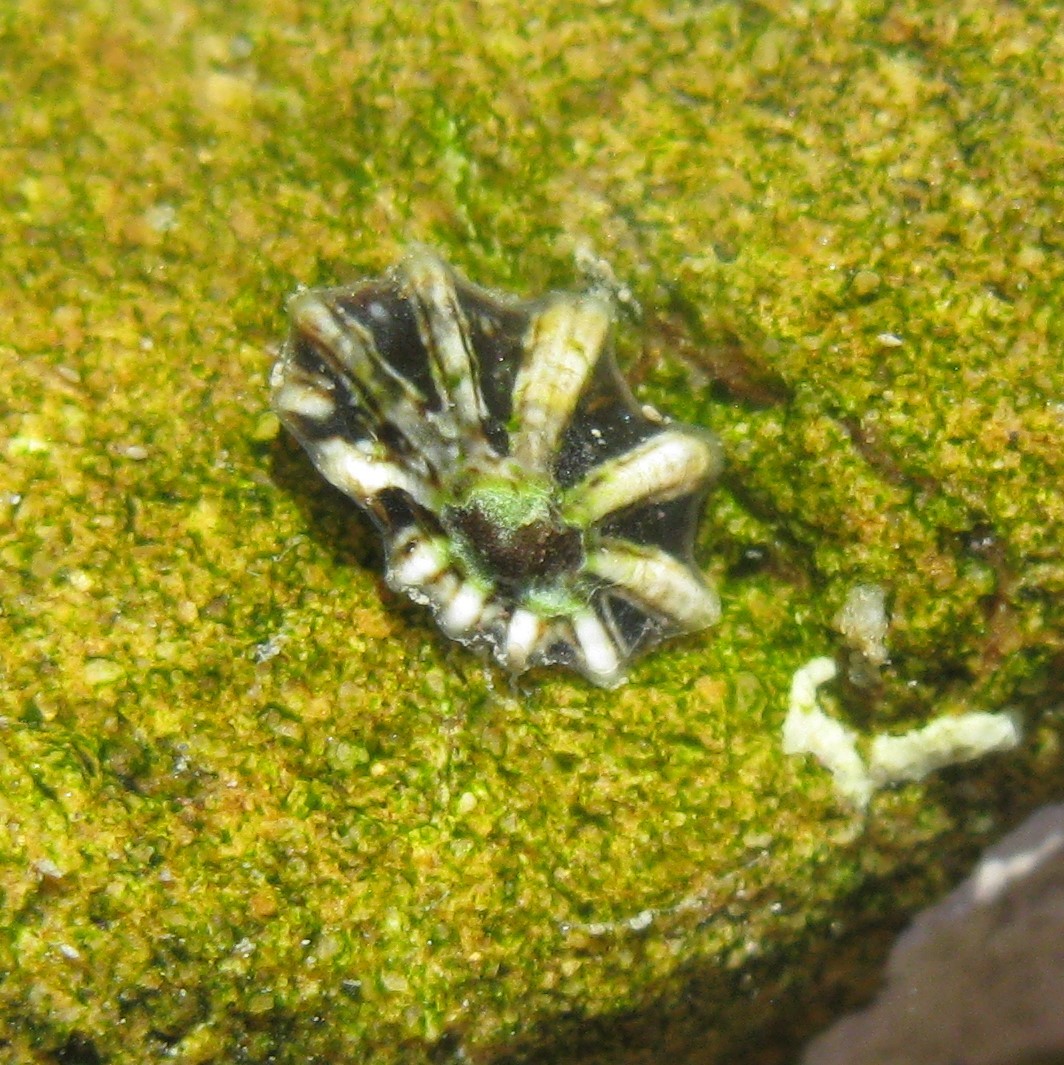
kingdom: Animalia
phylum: Mollusca
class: Gastropoda
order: Siphonariida
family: Siphonariidae
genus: Siphonaria
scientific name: Siphonaria australis
